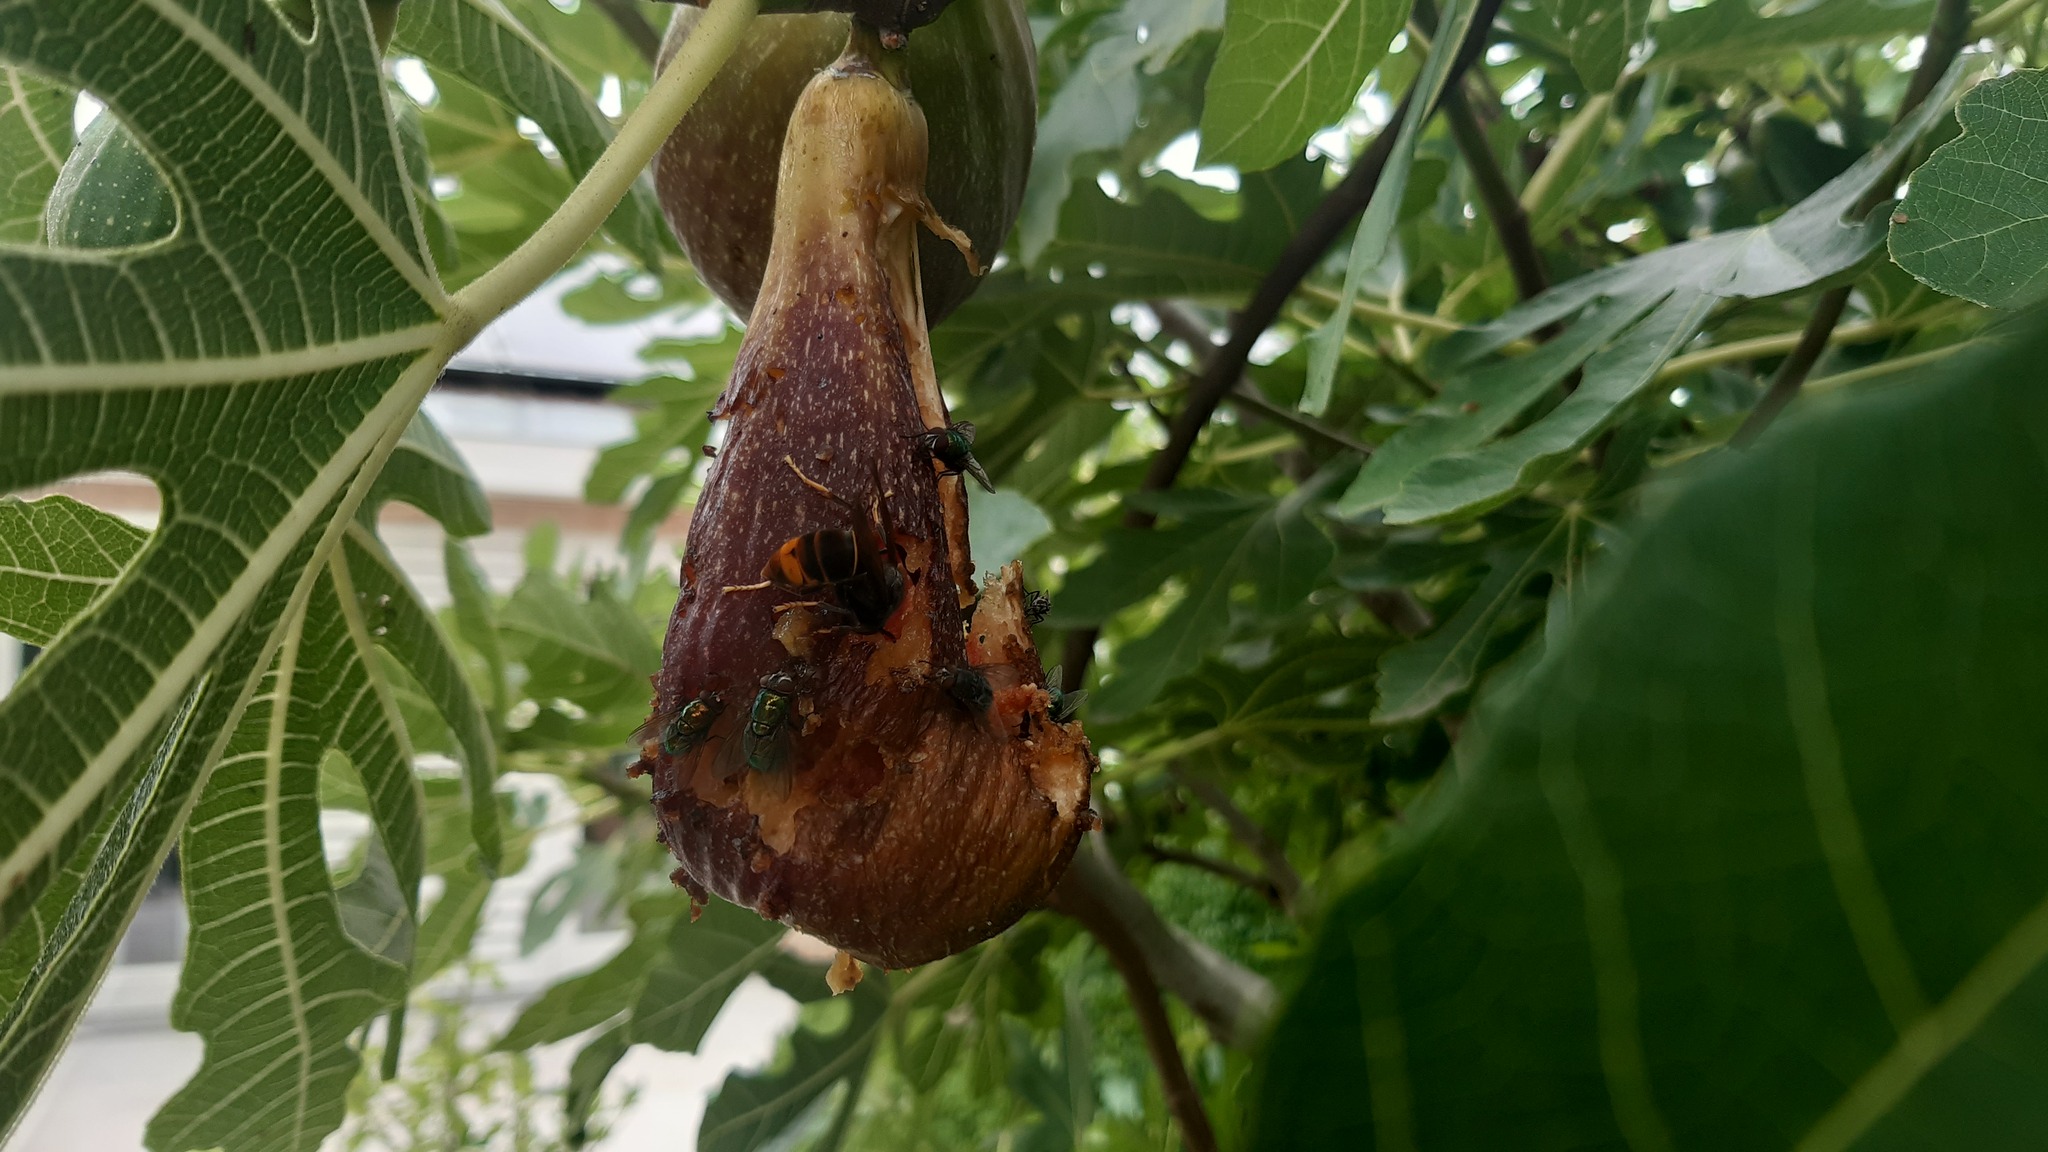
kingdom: Animalia
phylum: Arthropoda
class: Insecta
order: Hymenoptera
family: Vespidae
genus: Vespa
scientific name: Vespa velutina
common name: Asian hornet
